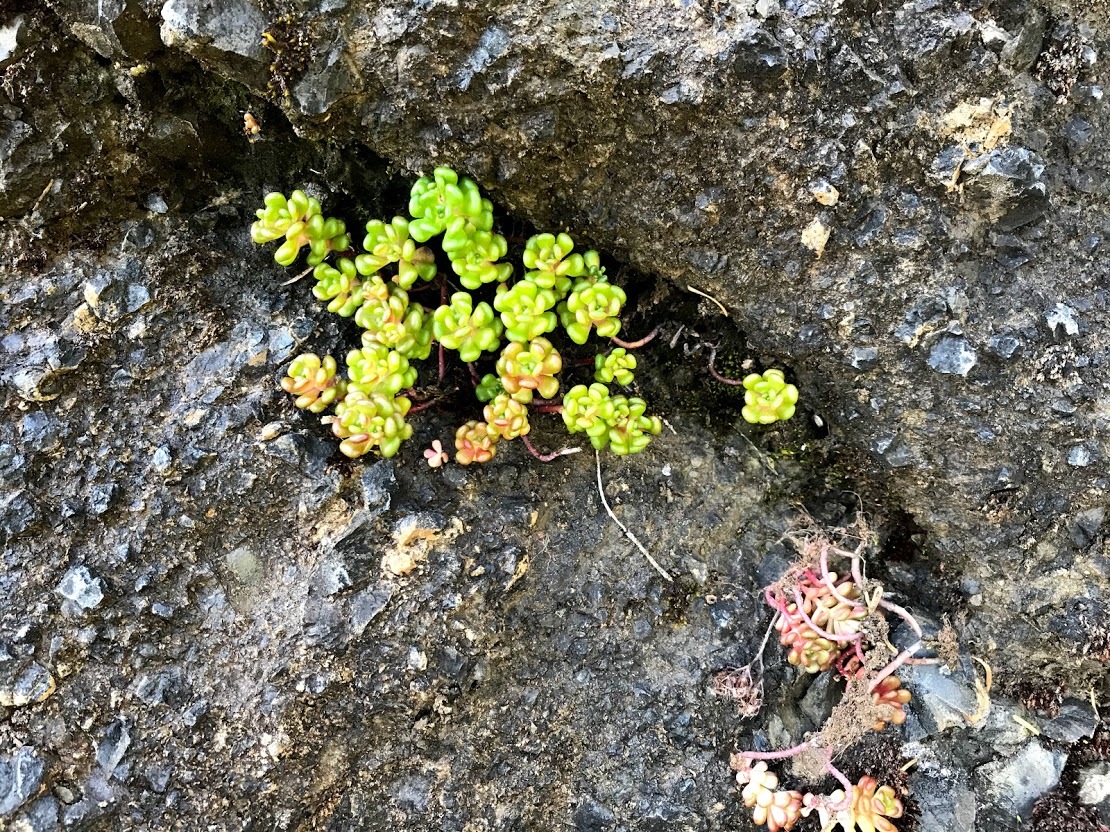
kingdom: Plantae
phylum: Tracheophyta
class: Magnoliopsida
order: Saxifragales
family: Crassulaceae
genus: Sedum
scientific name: Sedum oreganum
